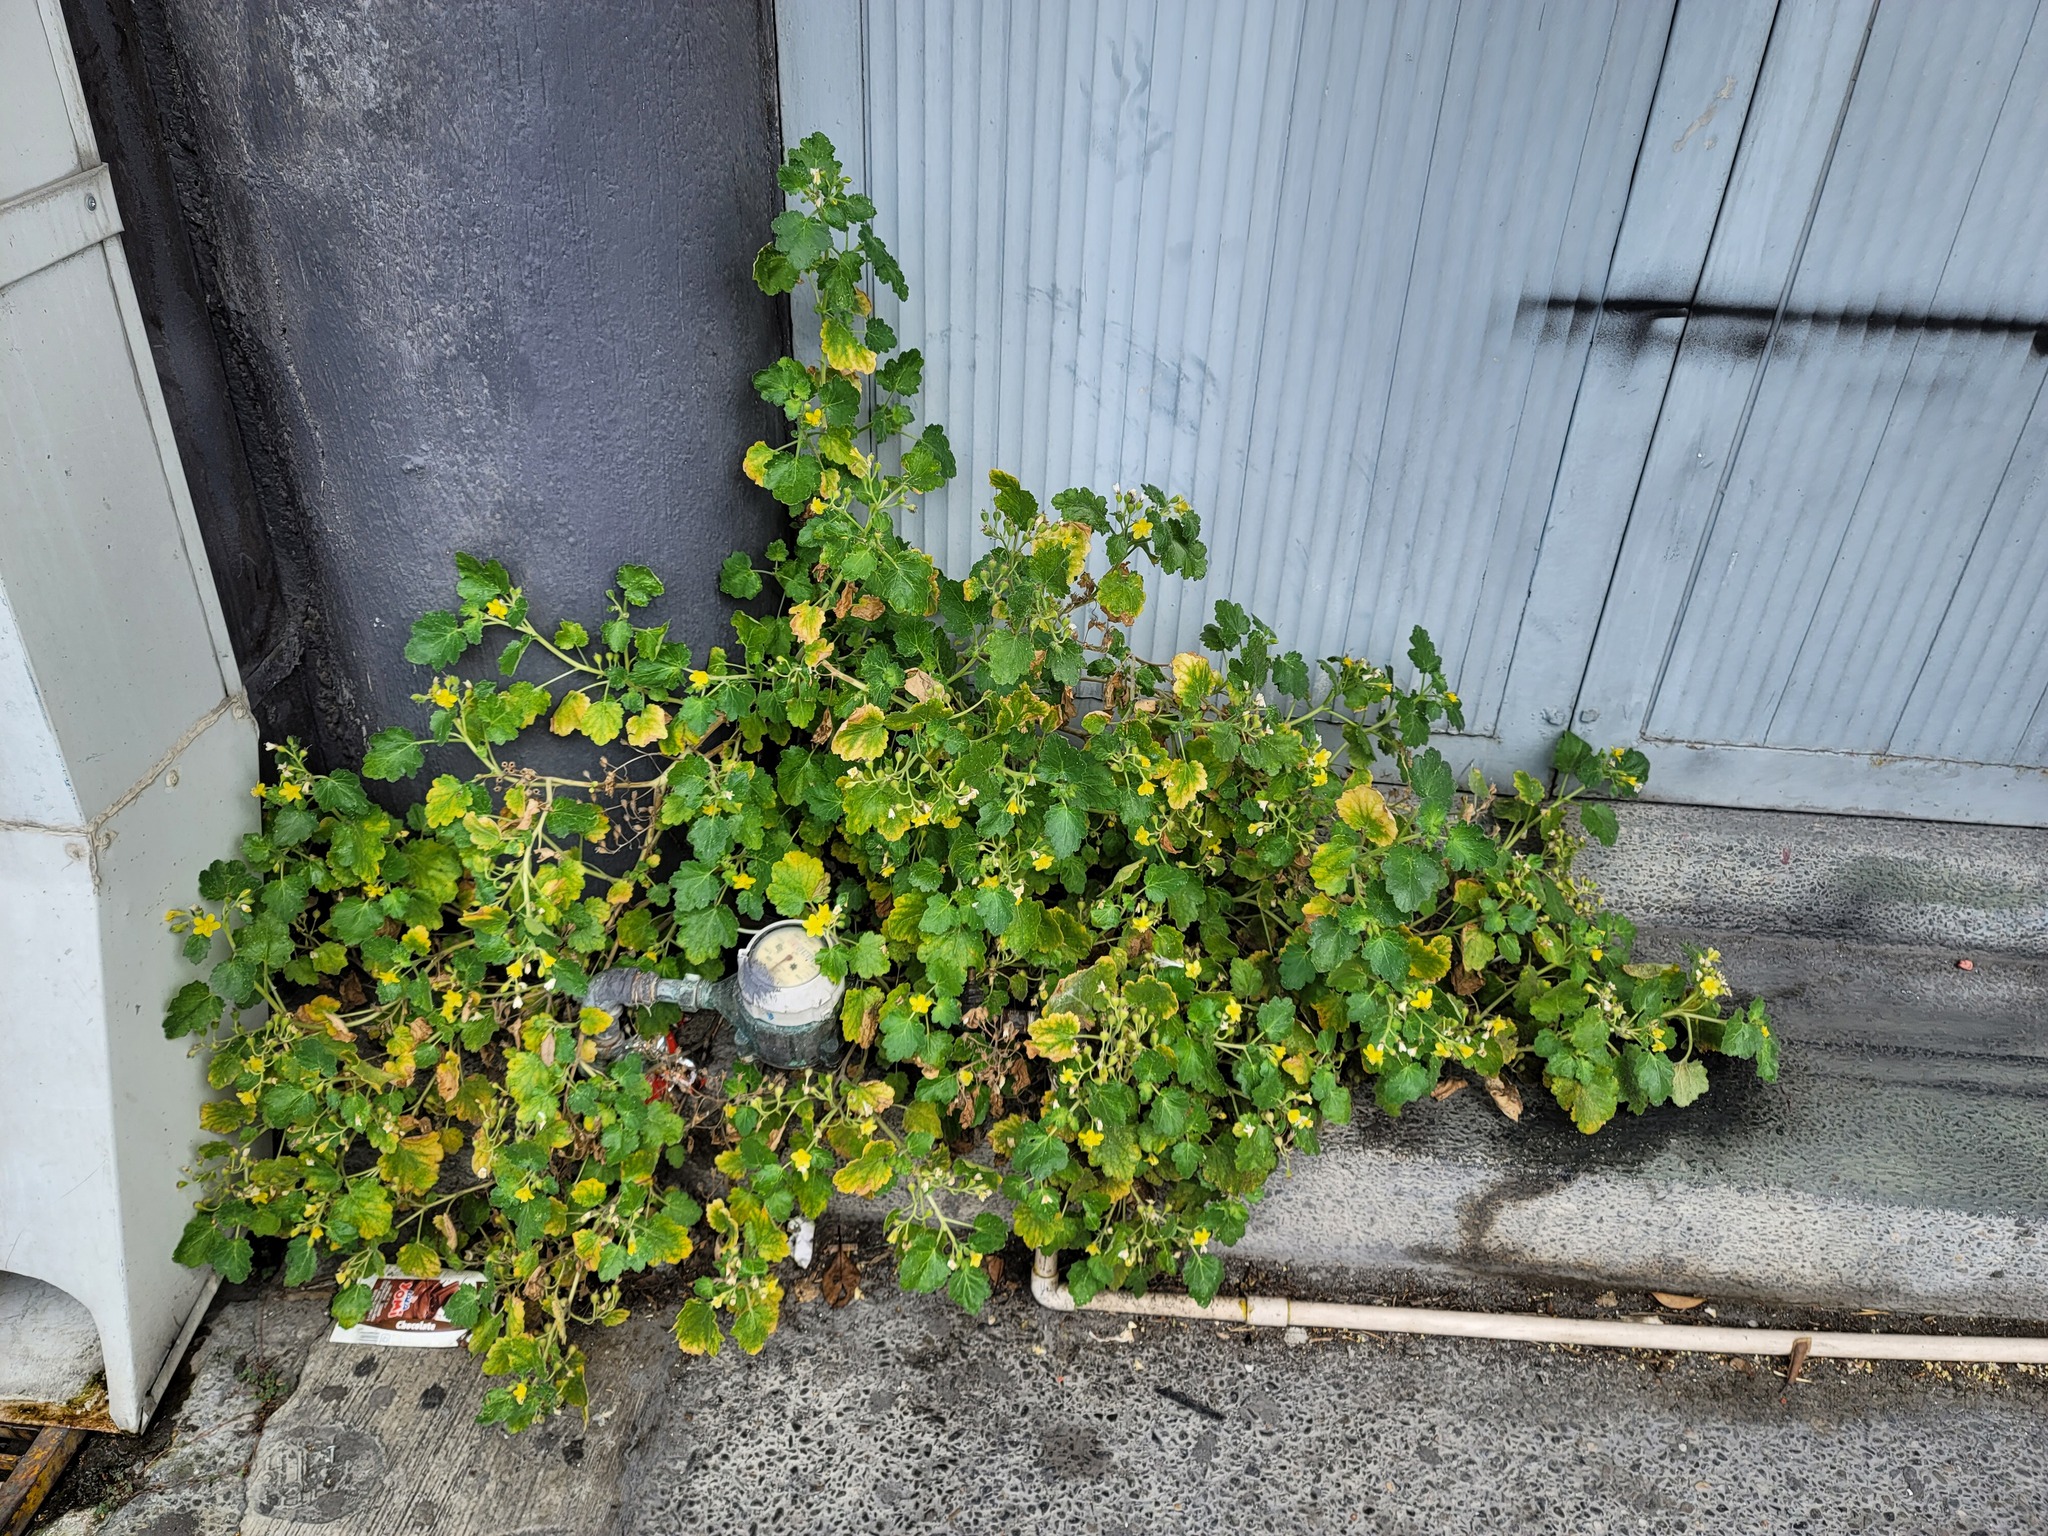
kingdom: Plantae
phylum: Tracheophyta
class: Magnoliopsida
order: Cornales
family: Loasaceae
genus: Eucnide
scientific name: Eucnide lobata
